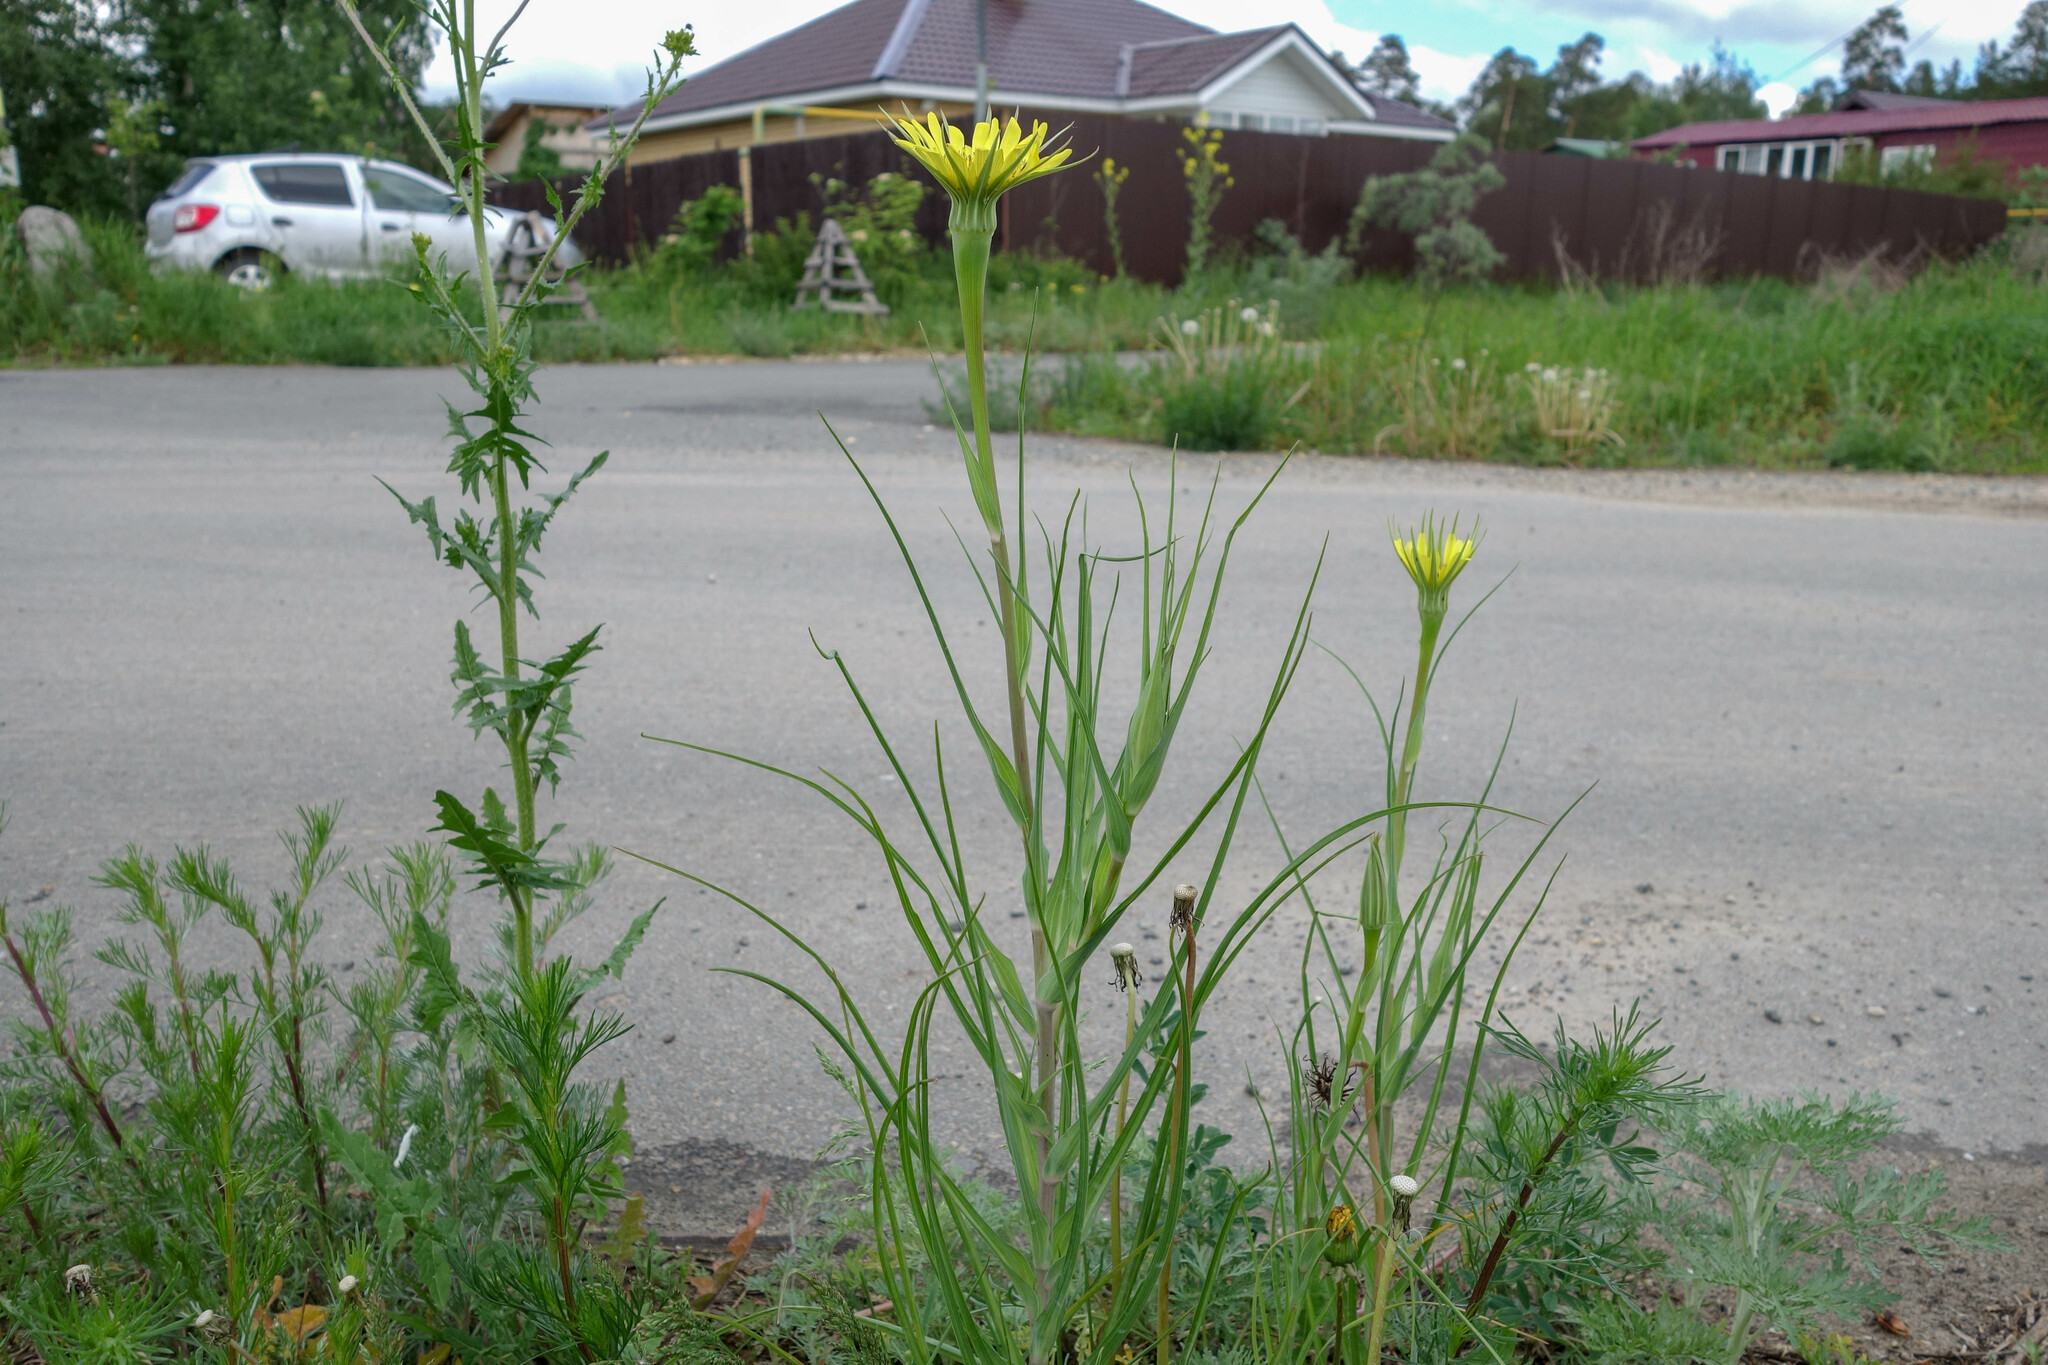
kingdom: Plantae
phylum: Tracheophyta
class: Magnoliopsida
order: Asterales
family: Asteraceae
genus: Tragopogon
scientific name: Tragopogon dubius
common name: Yellow salsify
